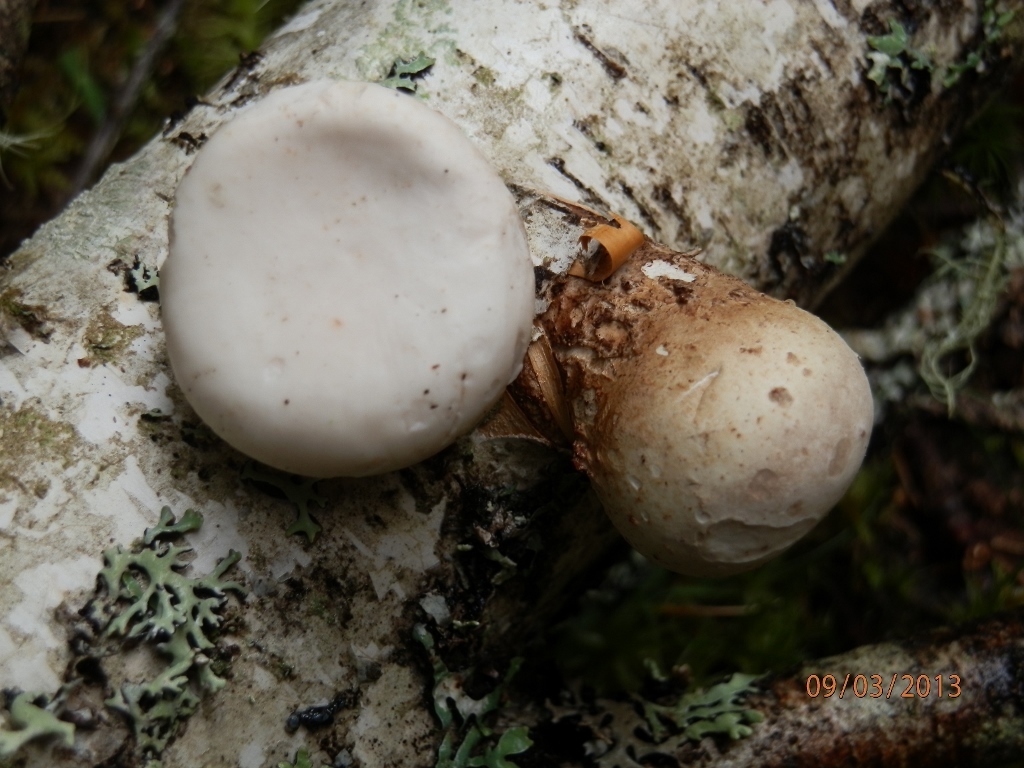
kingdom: Fungi
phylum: Basidiomycota
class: Agaricomycetes
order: Polyporales
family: Fomitopsidaceae
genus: Fomitopsis
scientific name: Fomitopsis betulina
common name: Birch polypore
